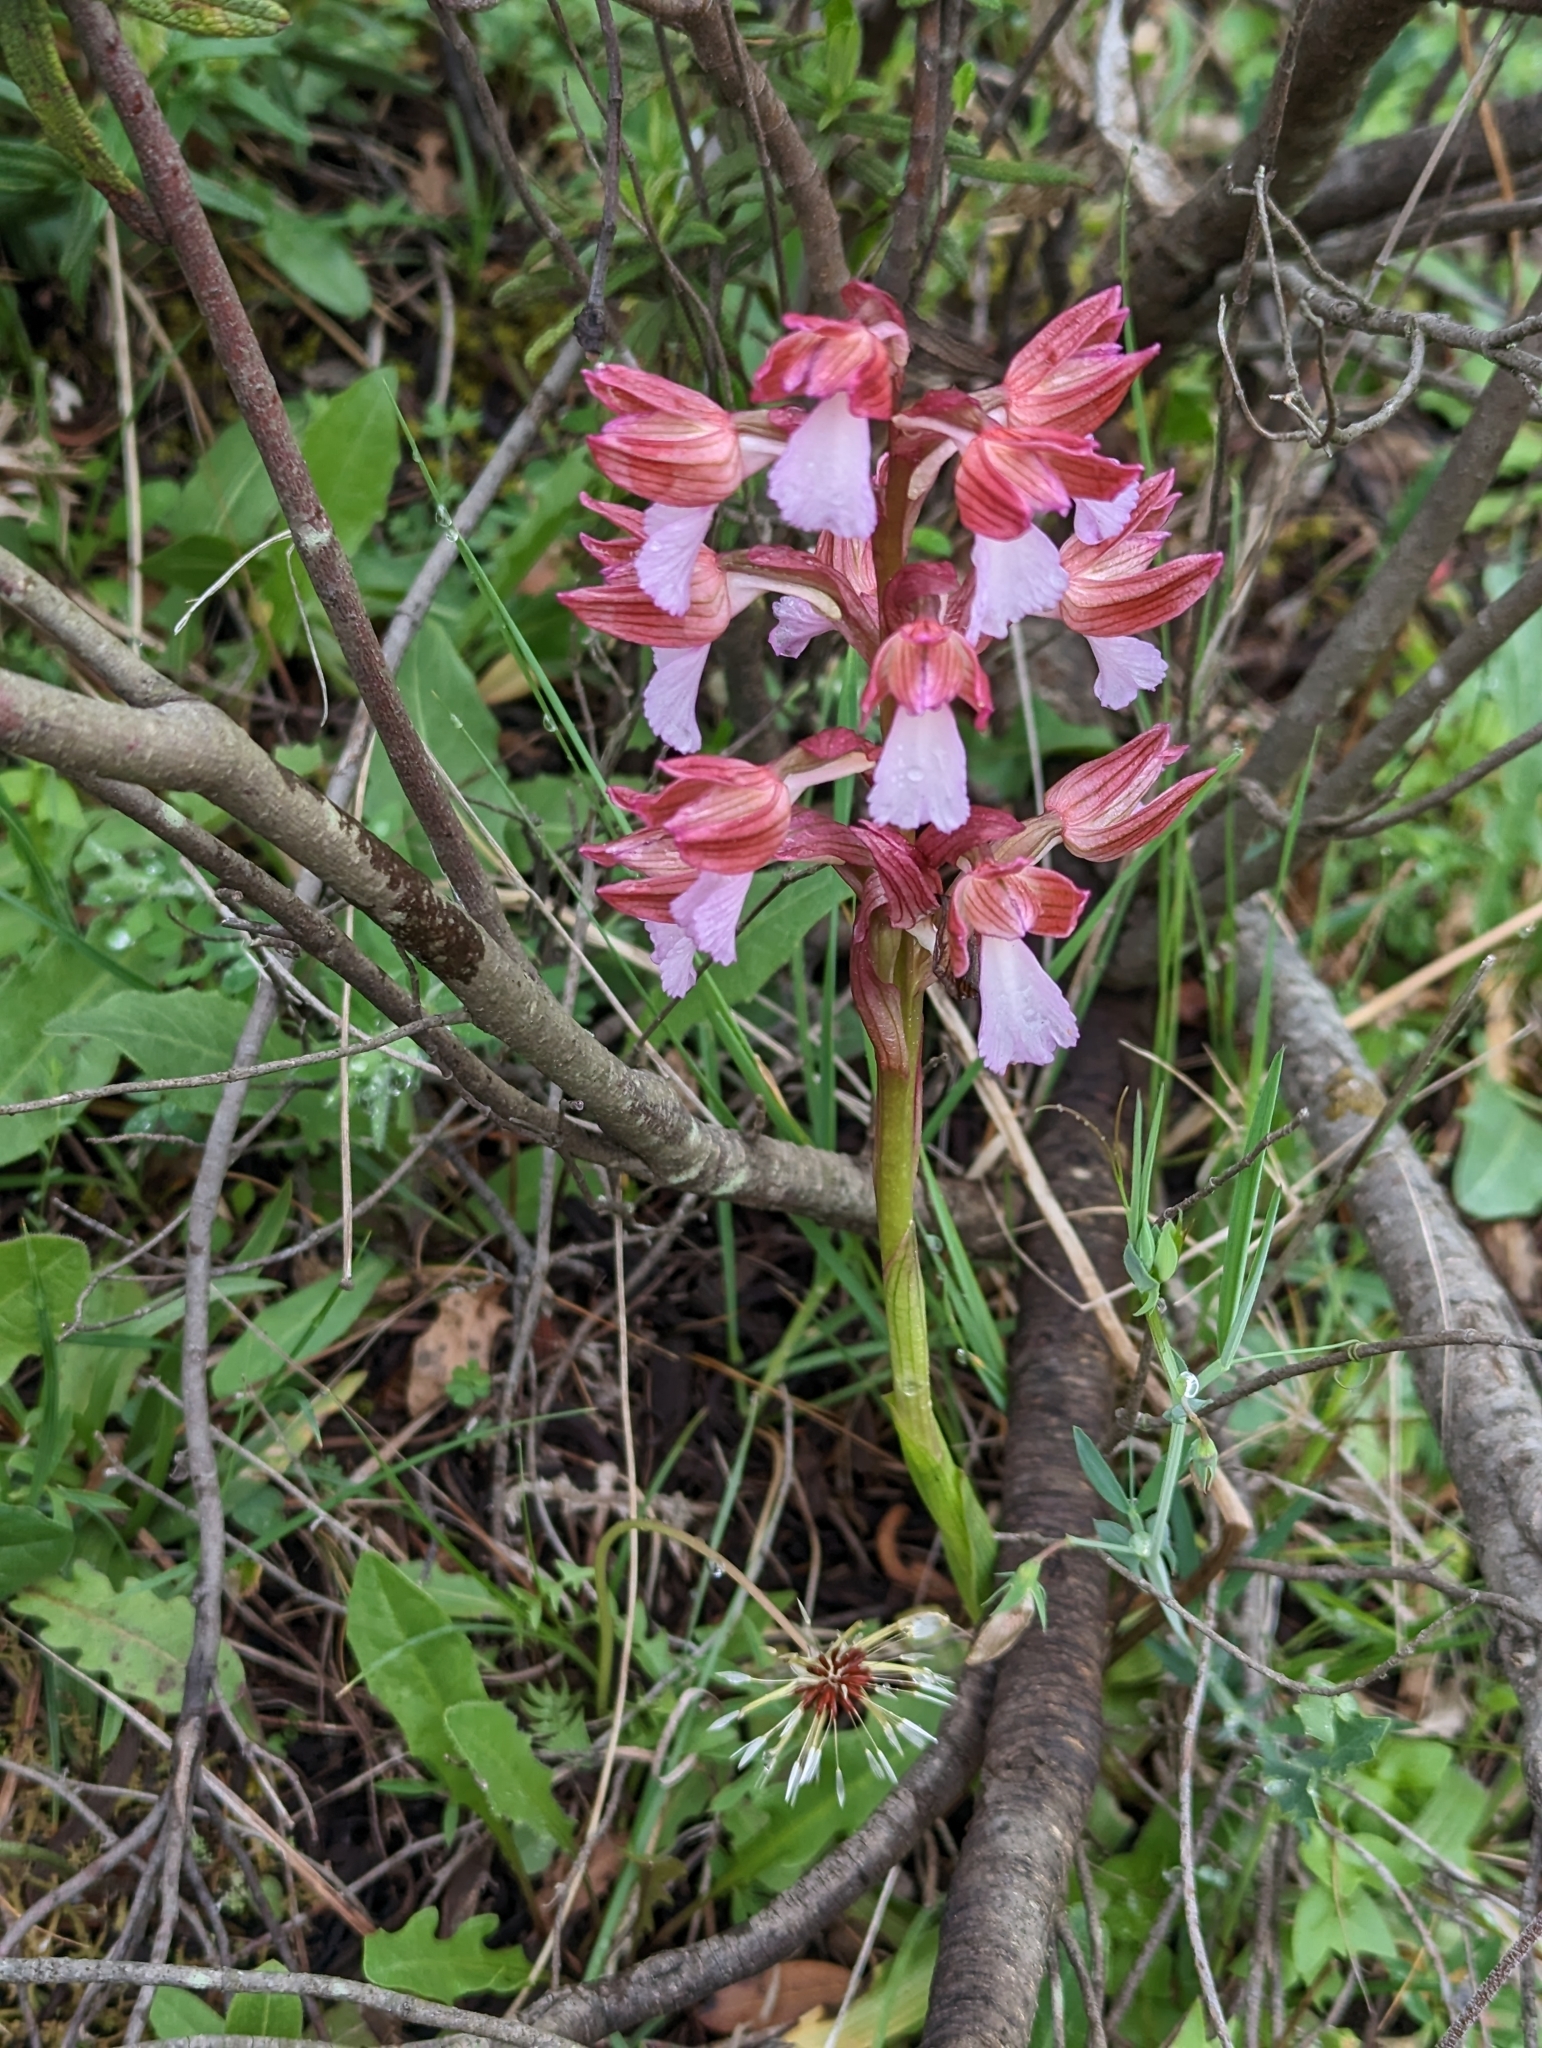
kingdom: Plantae
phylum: Tracheophyta
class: Liliopsida
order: Asparagales
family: Orchidaceae
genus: Anacamptis
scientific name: Anacamptis papilionacea
